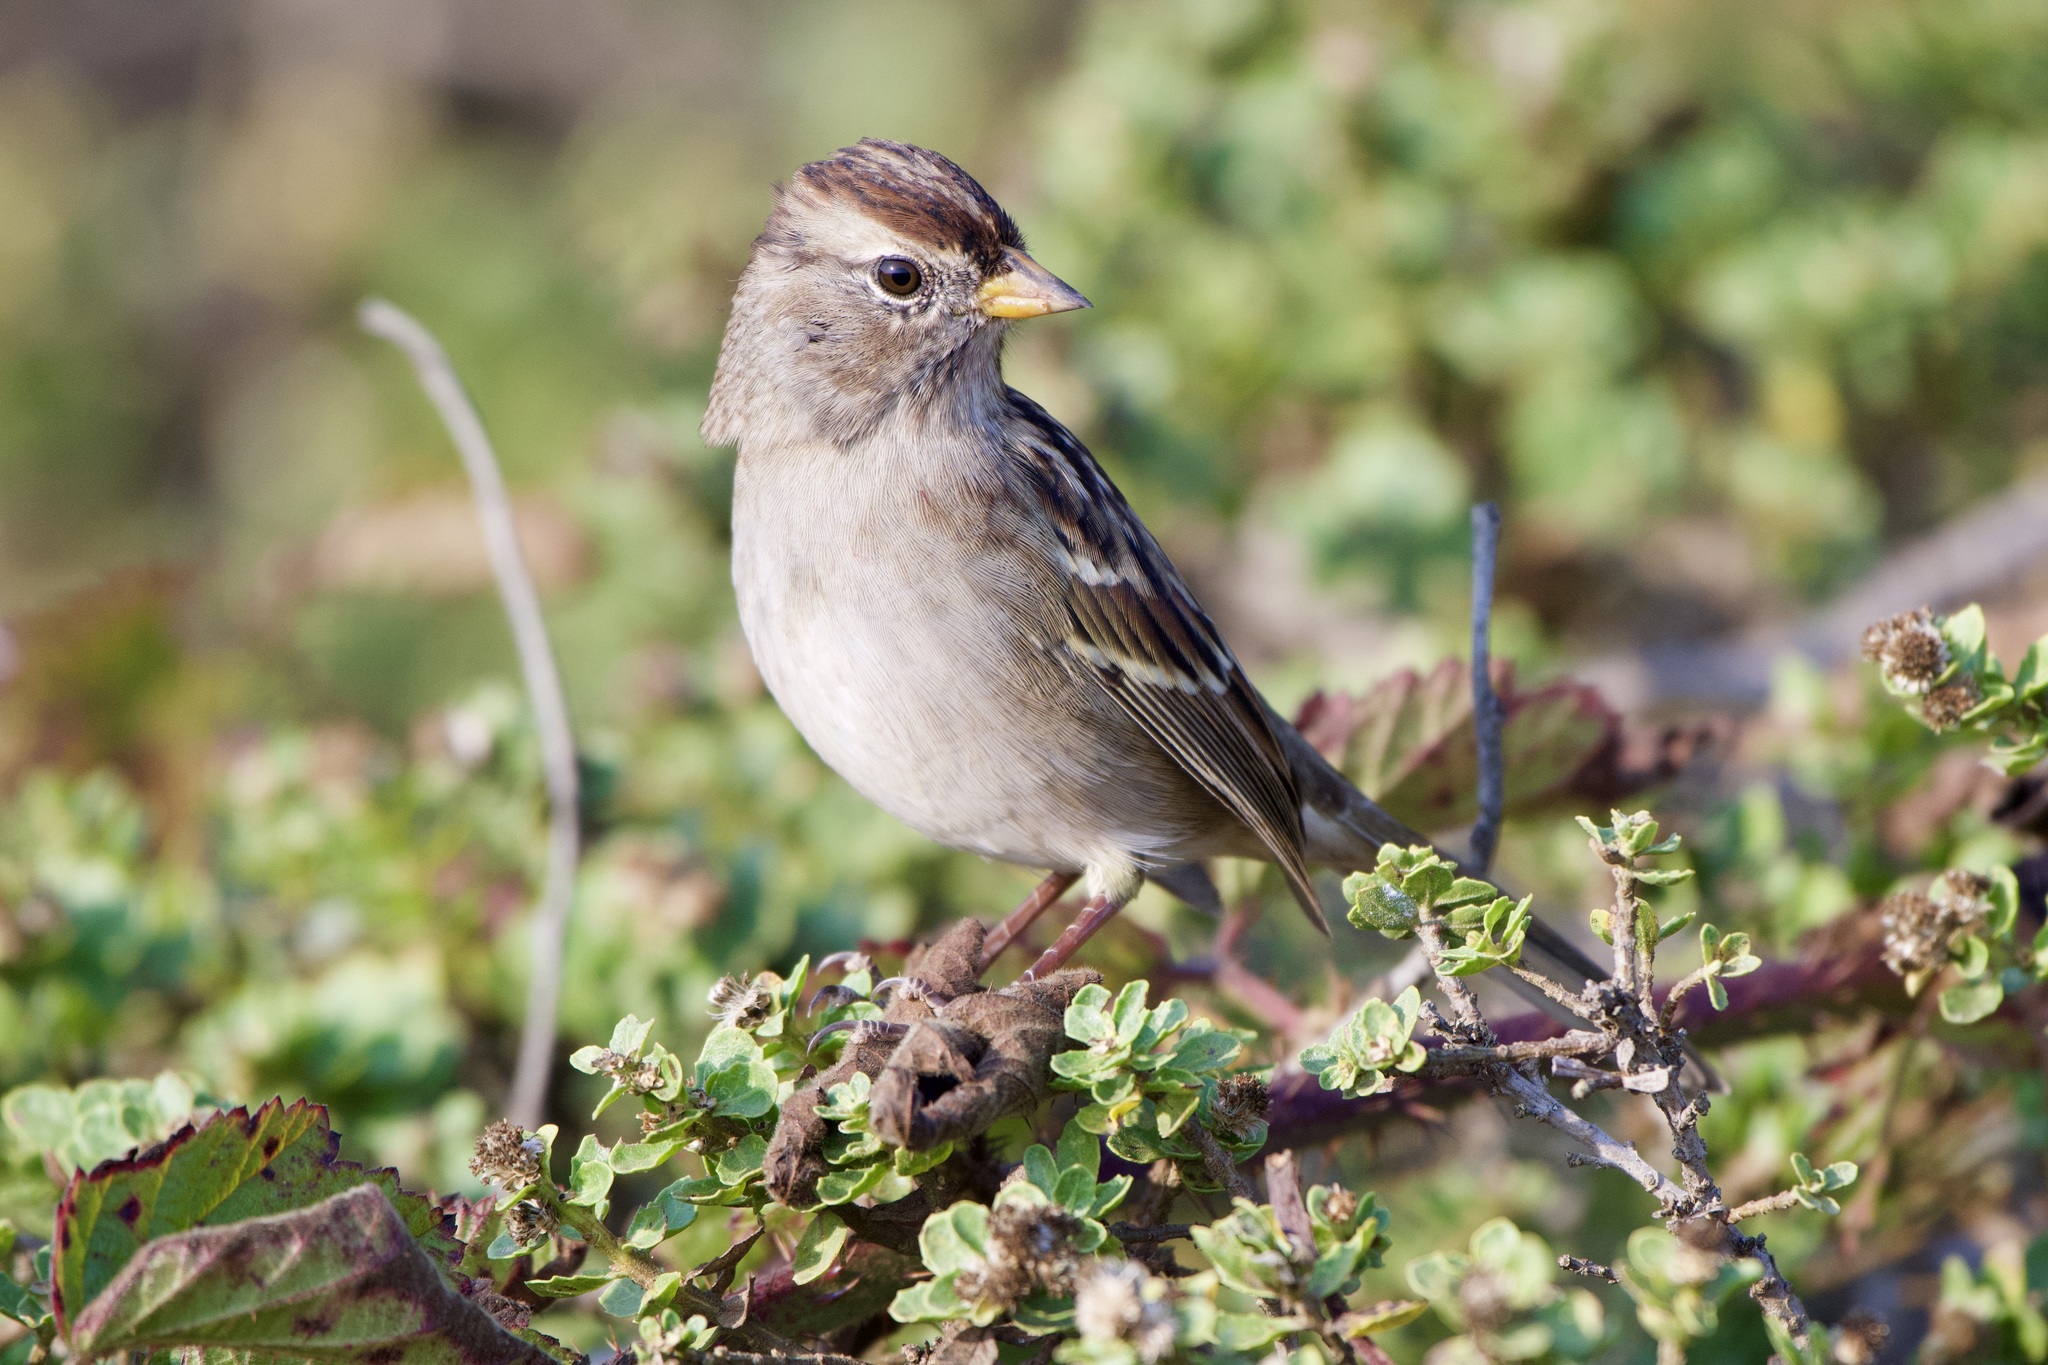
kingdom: Animalia
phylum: Chordata
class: Aves
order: Passeriformes
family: Passerellidae
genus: Zonotrichia
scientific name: Zonotrichia leucophrys
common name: White-crowned sparrow
